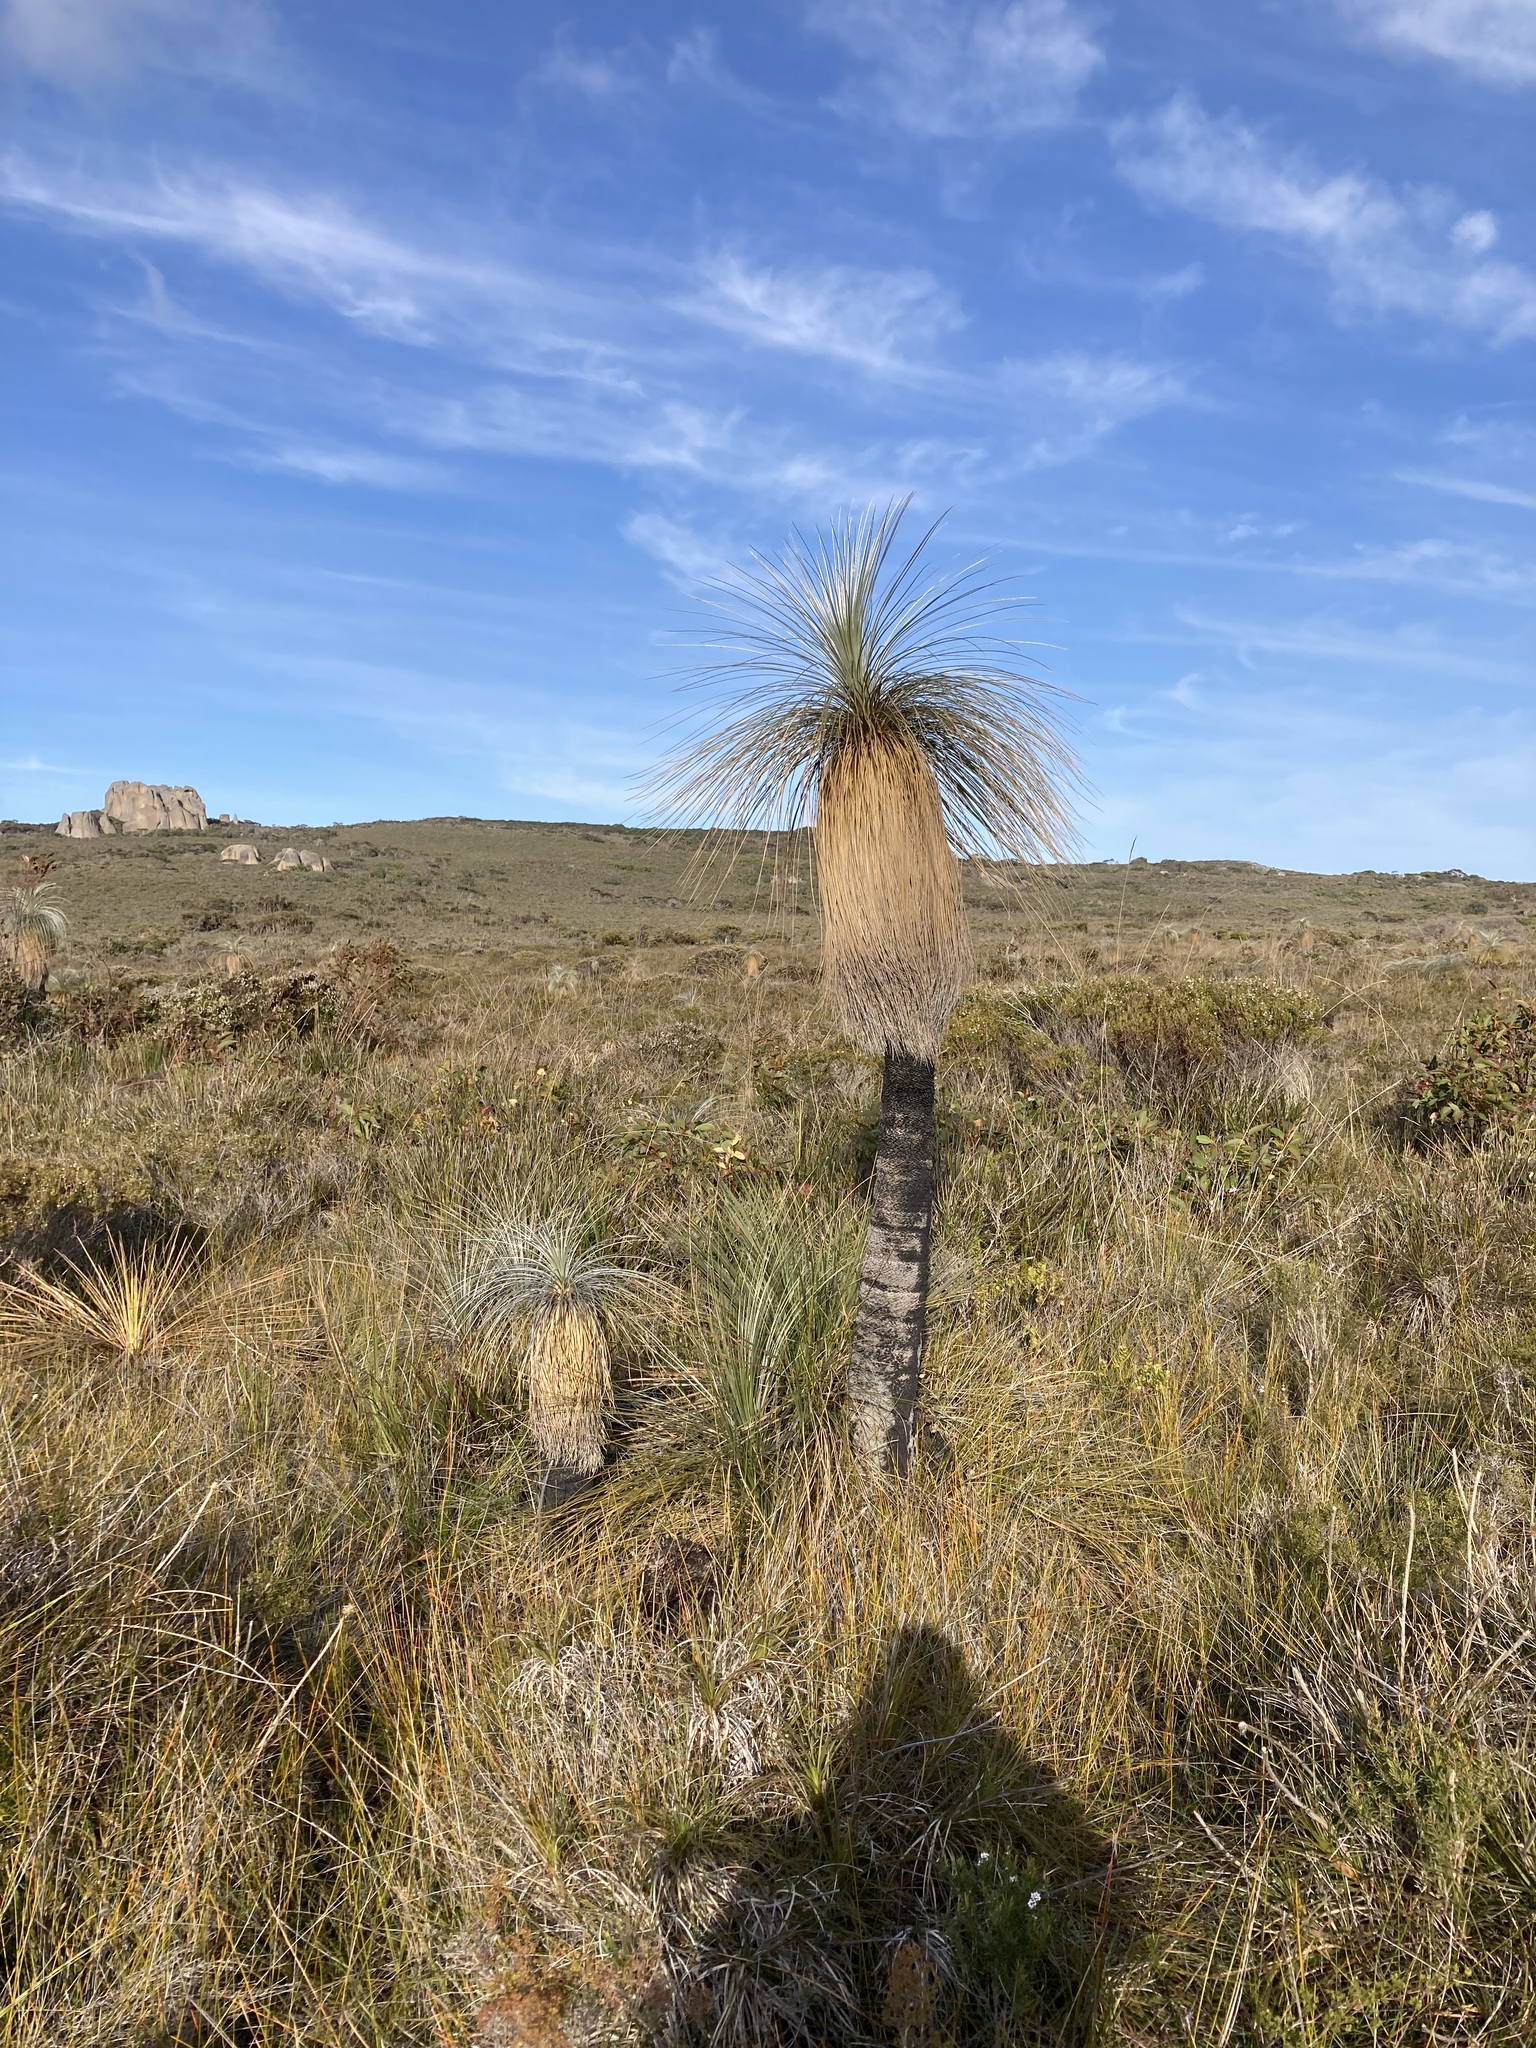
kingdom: Plantae
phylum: Tracheophyta
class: Liliopsida
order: Arecales
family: Dasypogonaceae
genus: Kingia
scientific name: Kingia australis
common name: Black gin
